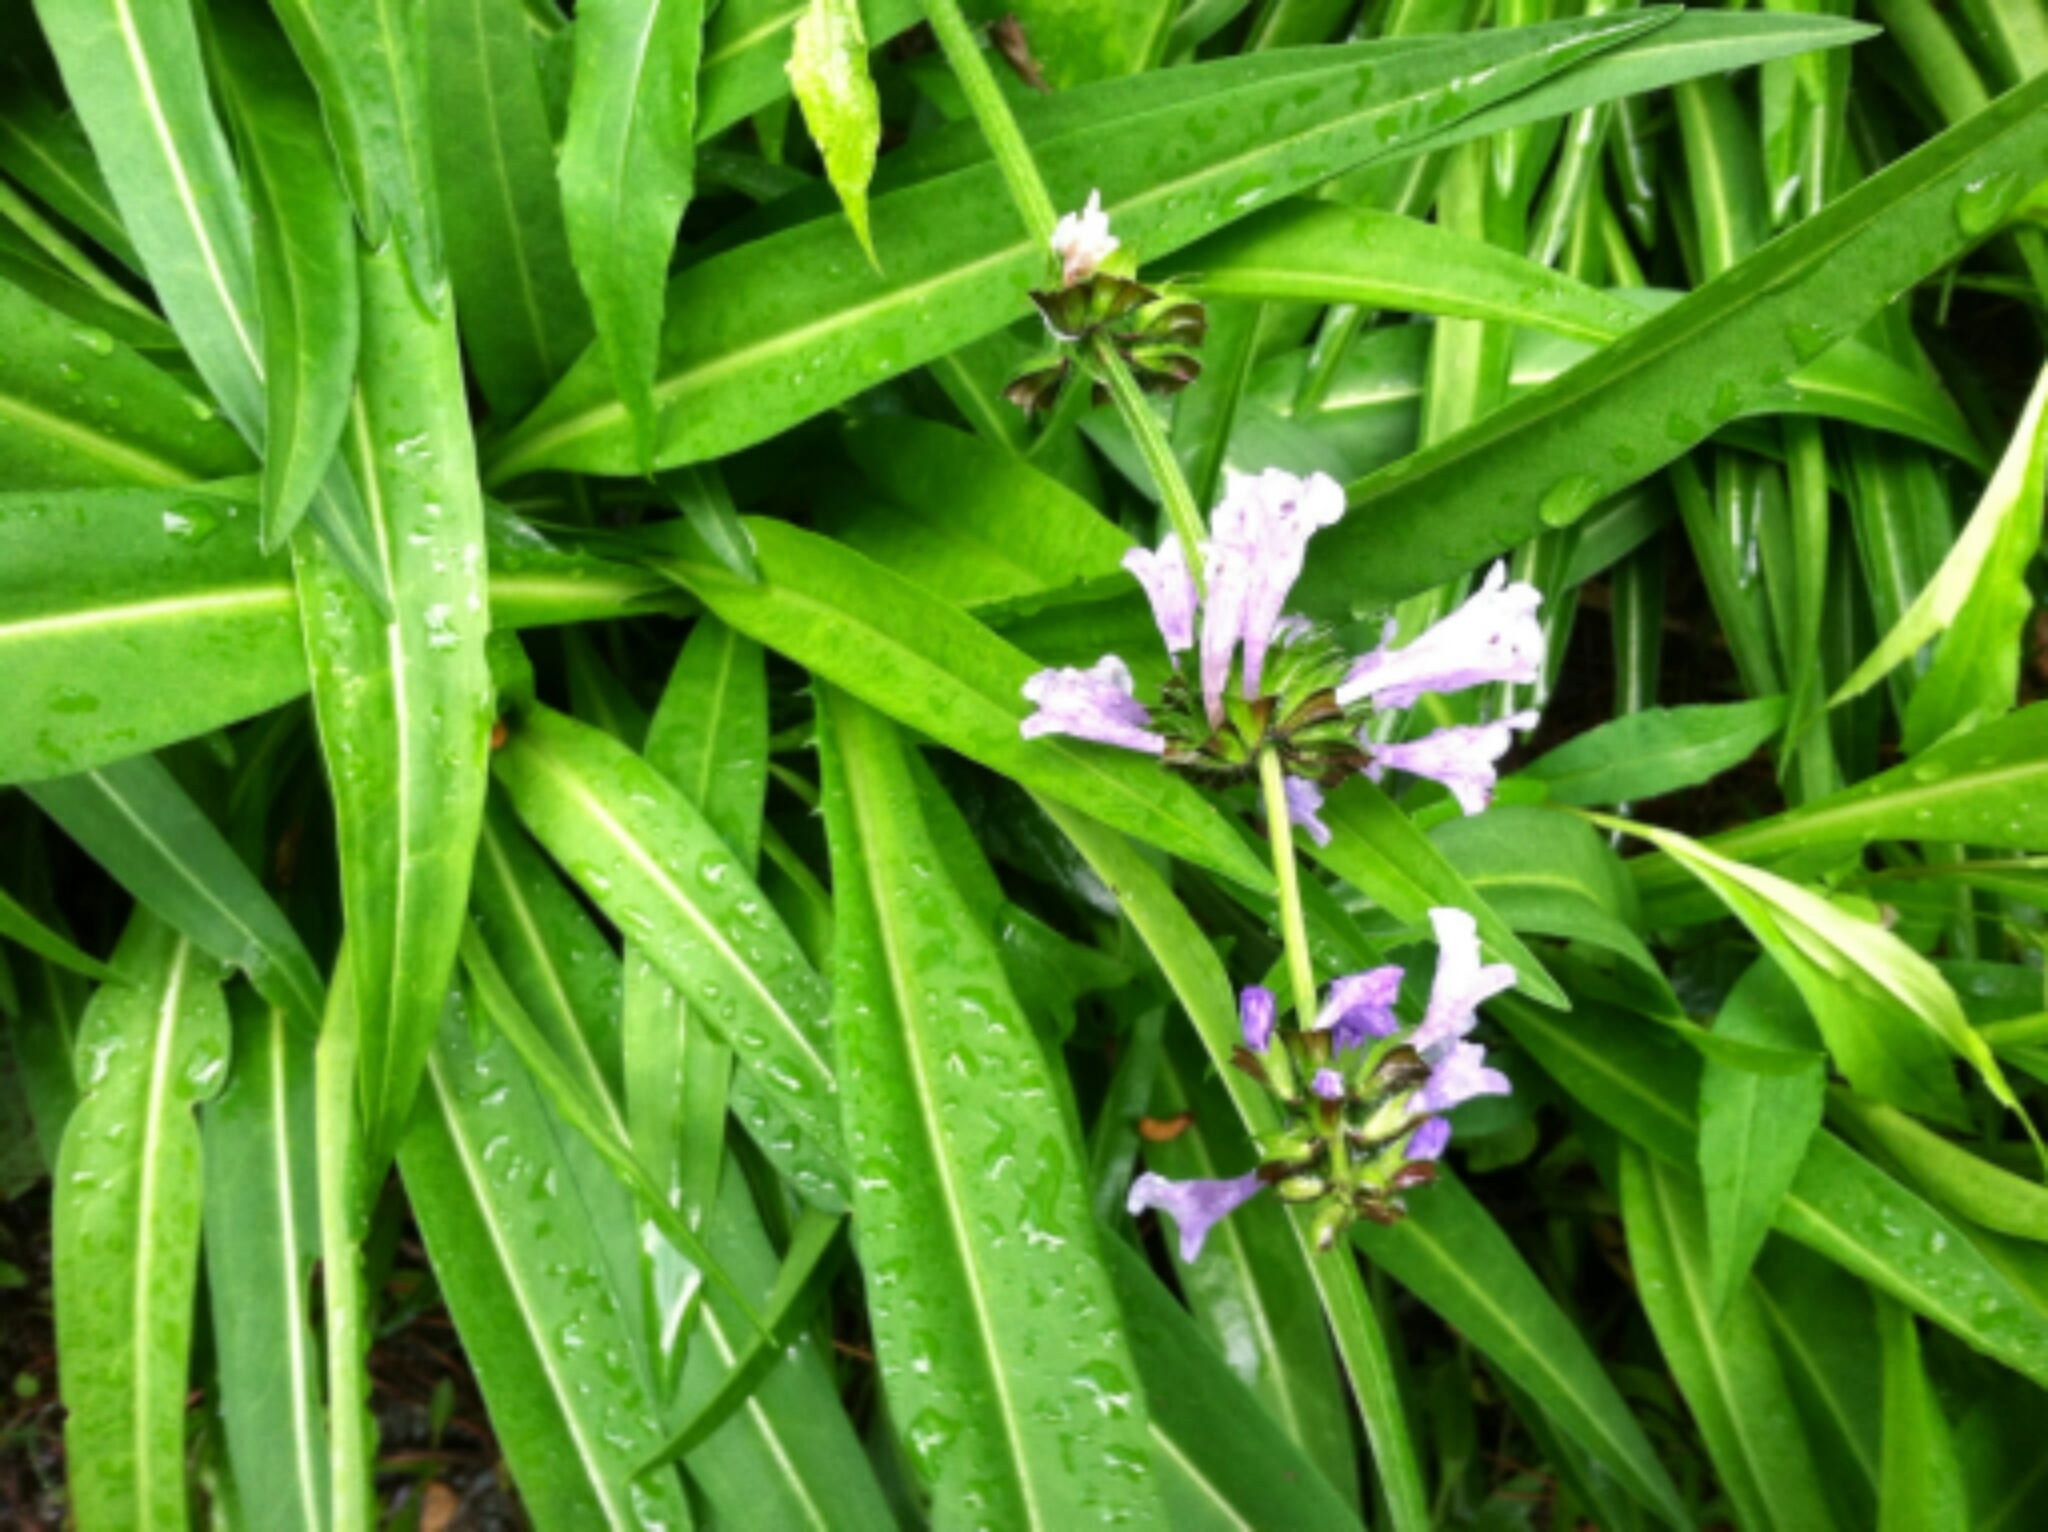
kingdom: Plantae
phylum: Tracheophyta
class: Magnoliopsida
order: Lamiales
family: Lamiaceae
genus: Salvia
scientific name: Salvia lyrata
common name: Cancerweed
